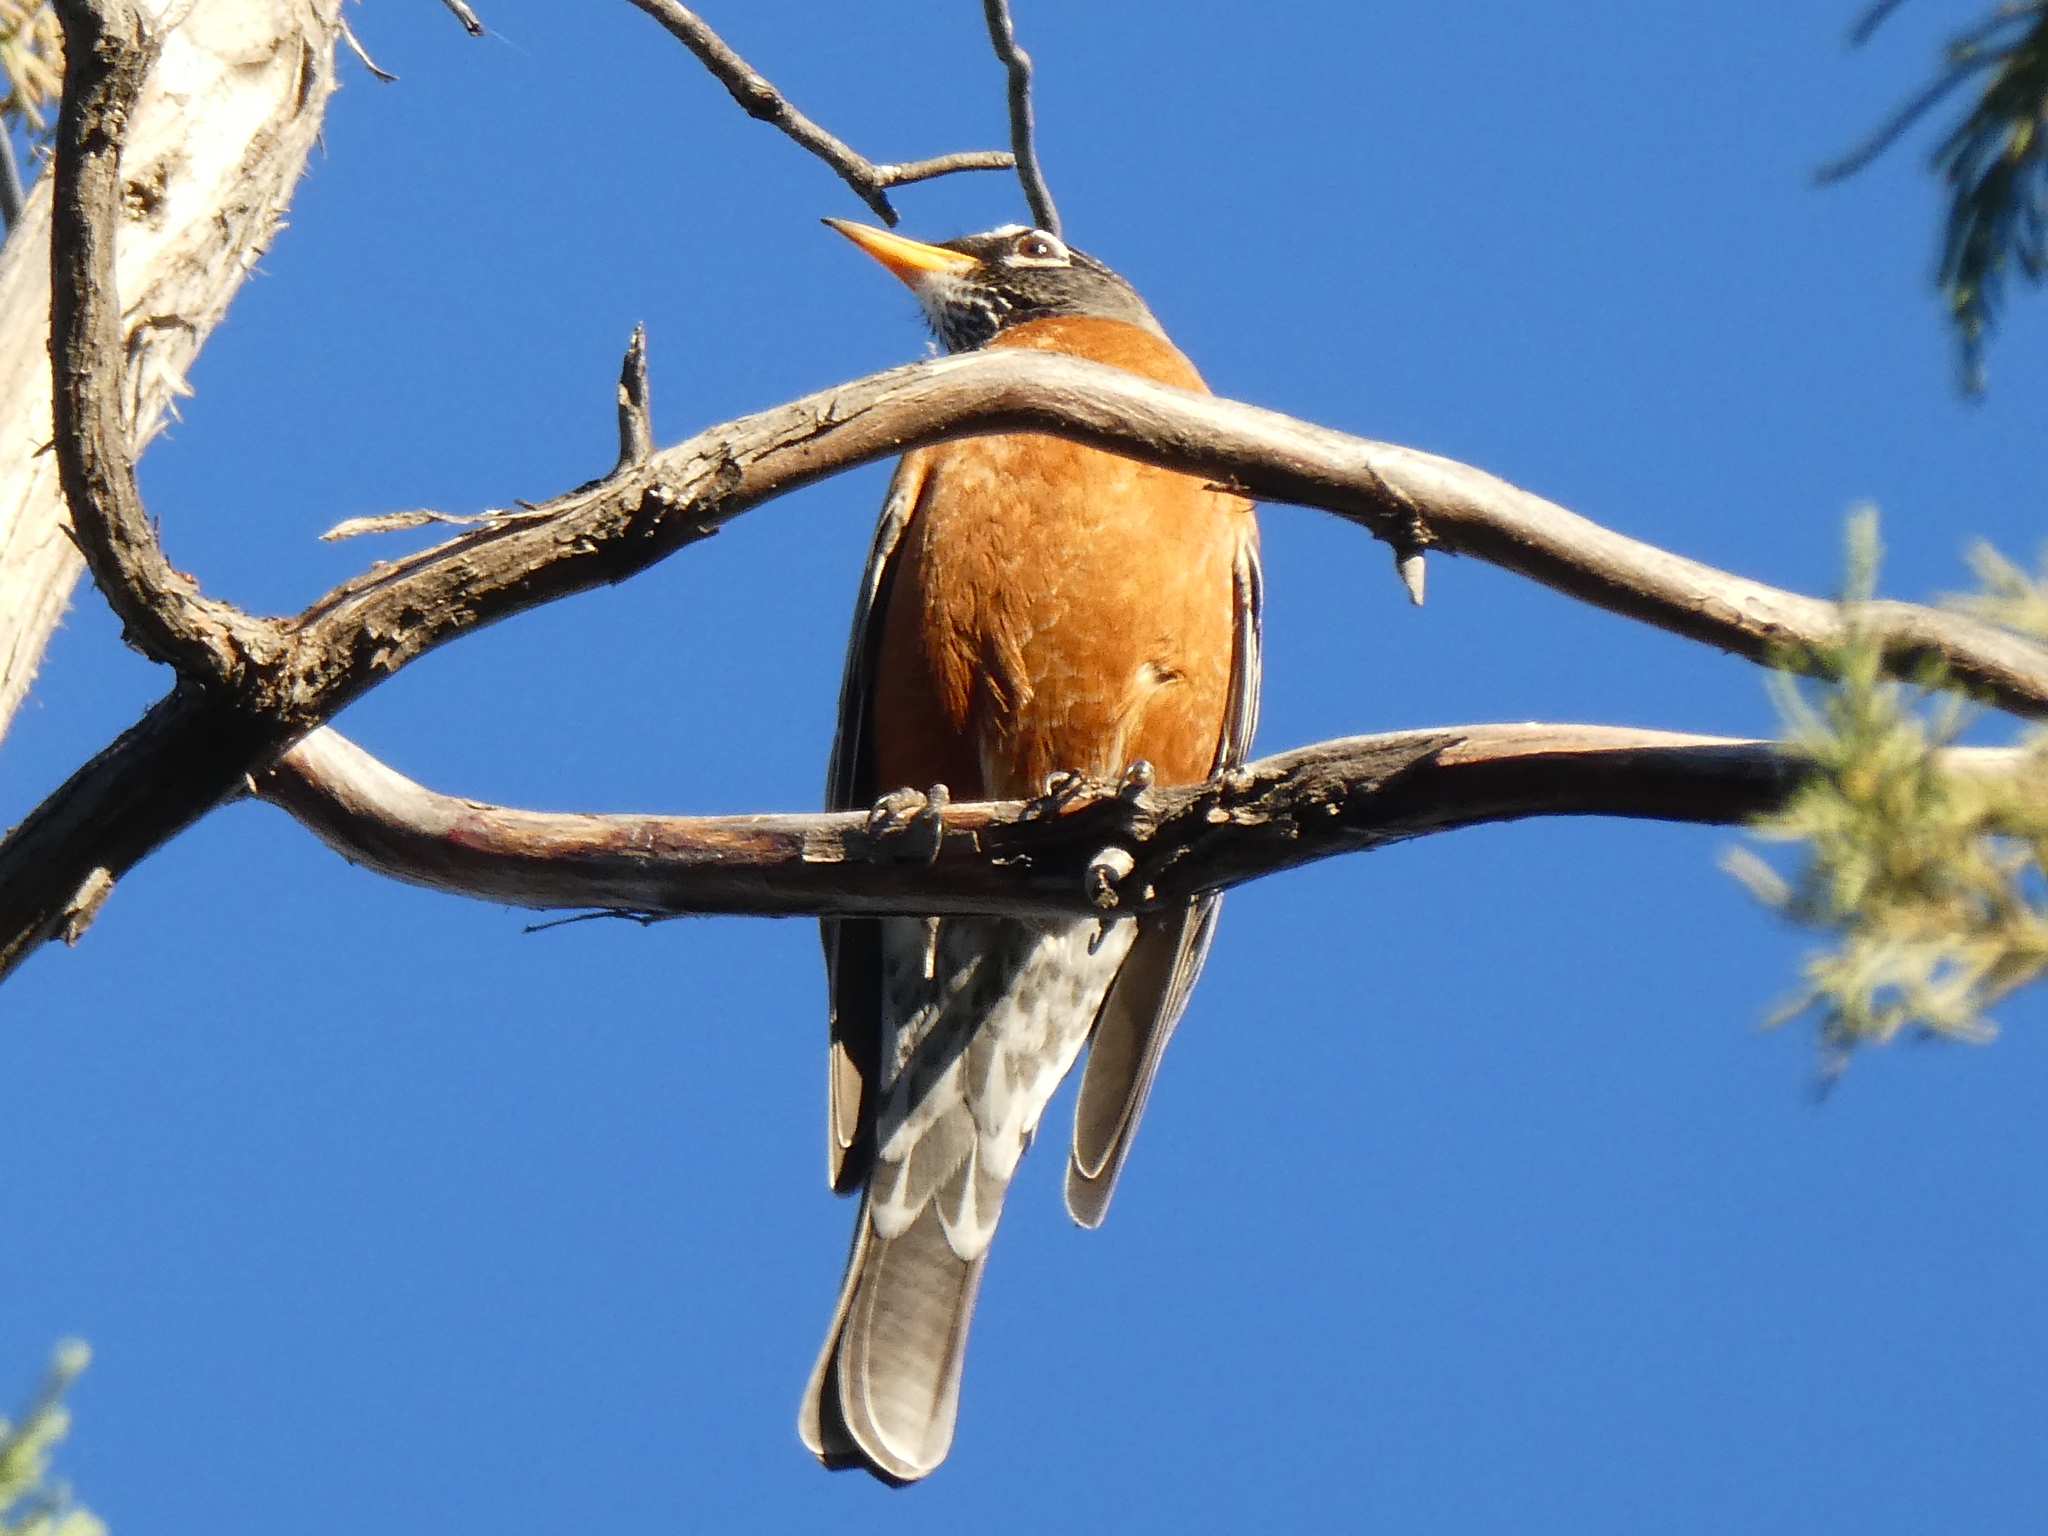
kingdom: Animalia
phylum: Chordata
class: Aves
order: Passeriformes
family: Turdidae
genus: Turdus
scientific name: Turdus migratorius
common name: American robin
